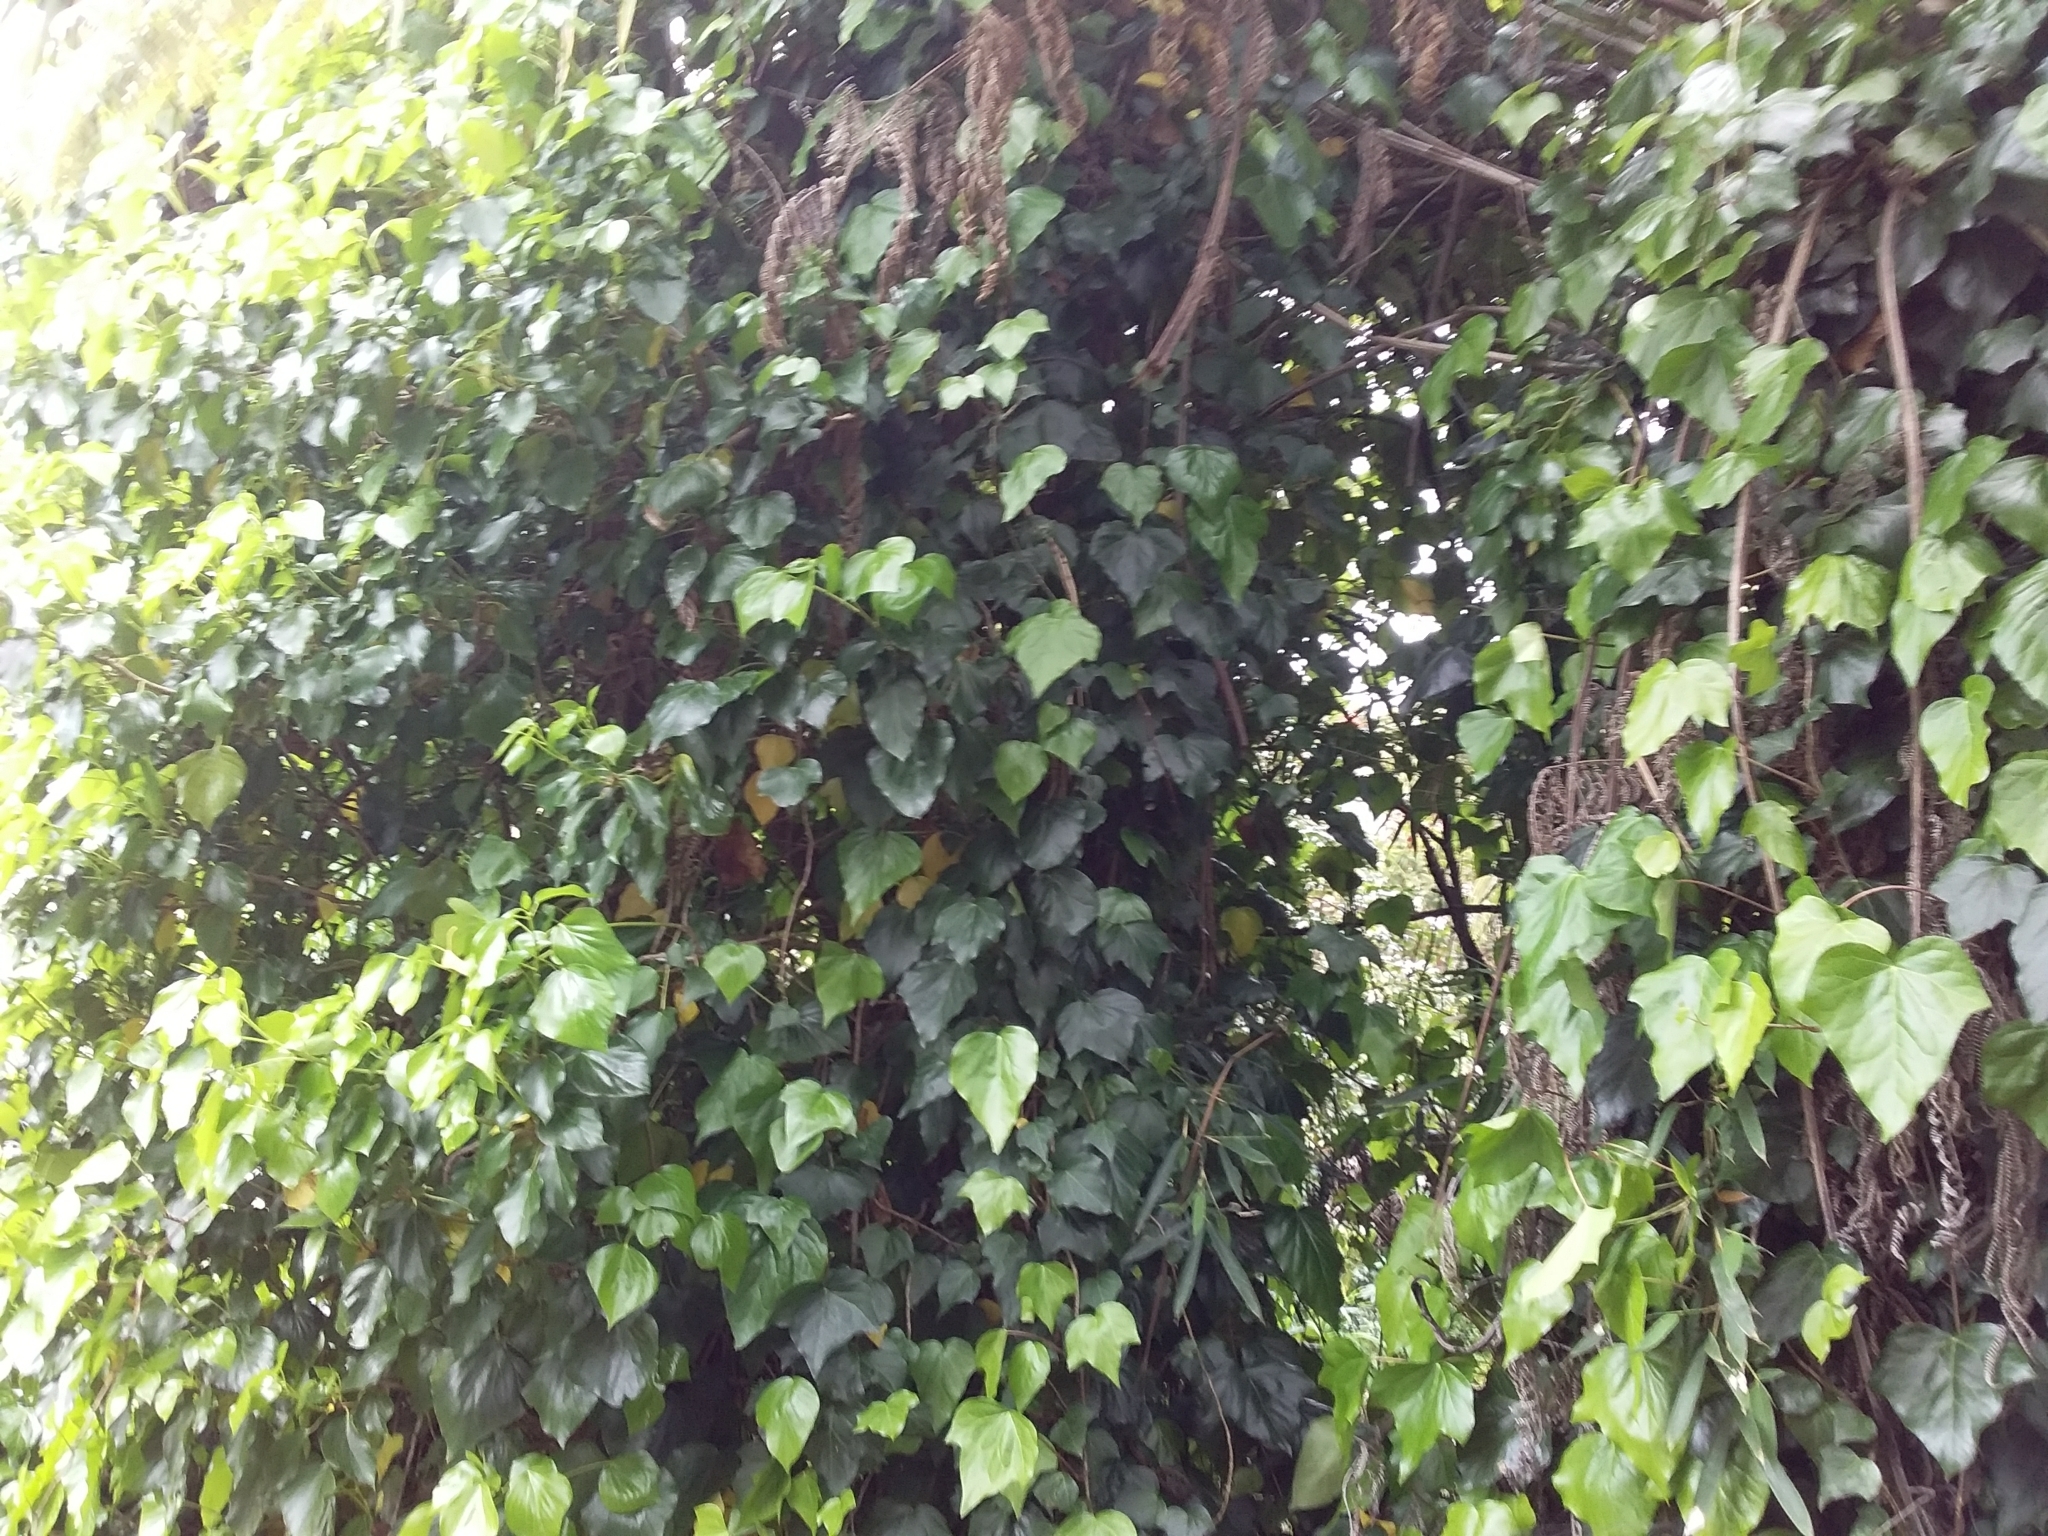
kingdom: Plantae
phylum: Tracheophyta
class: Magnoliopsida
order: Apiales
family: Araliaceae
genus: Hedera
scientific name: Hedera helix
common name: Ivy
